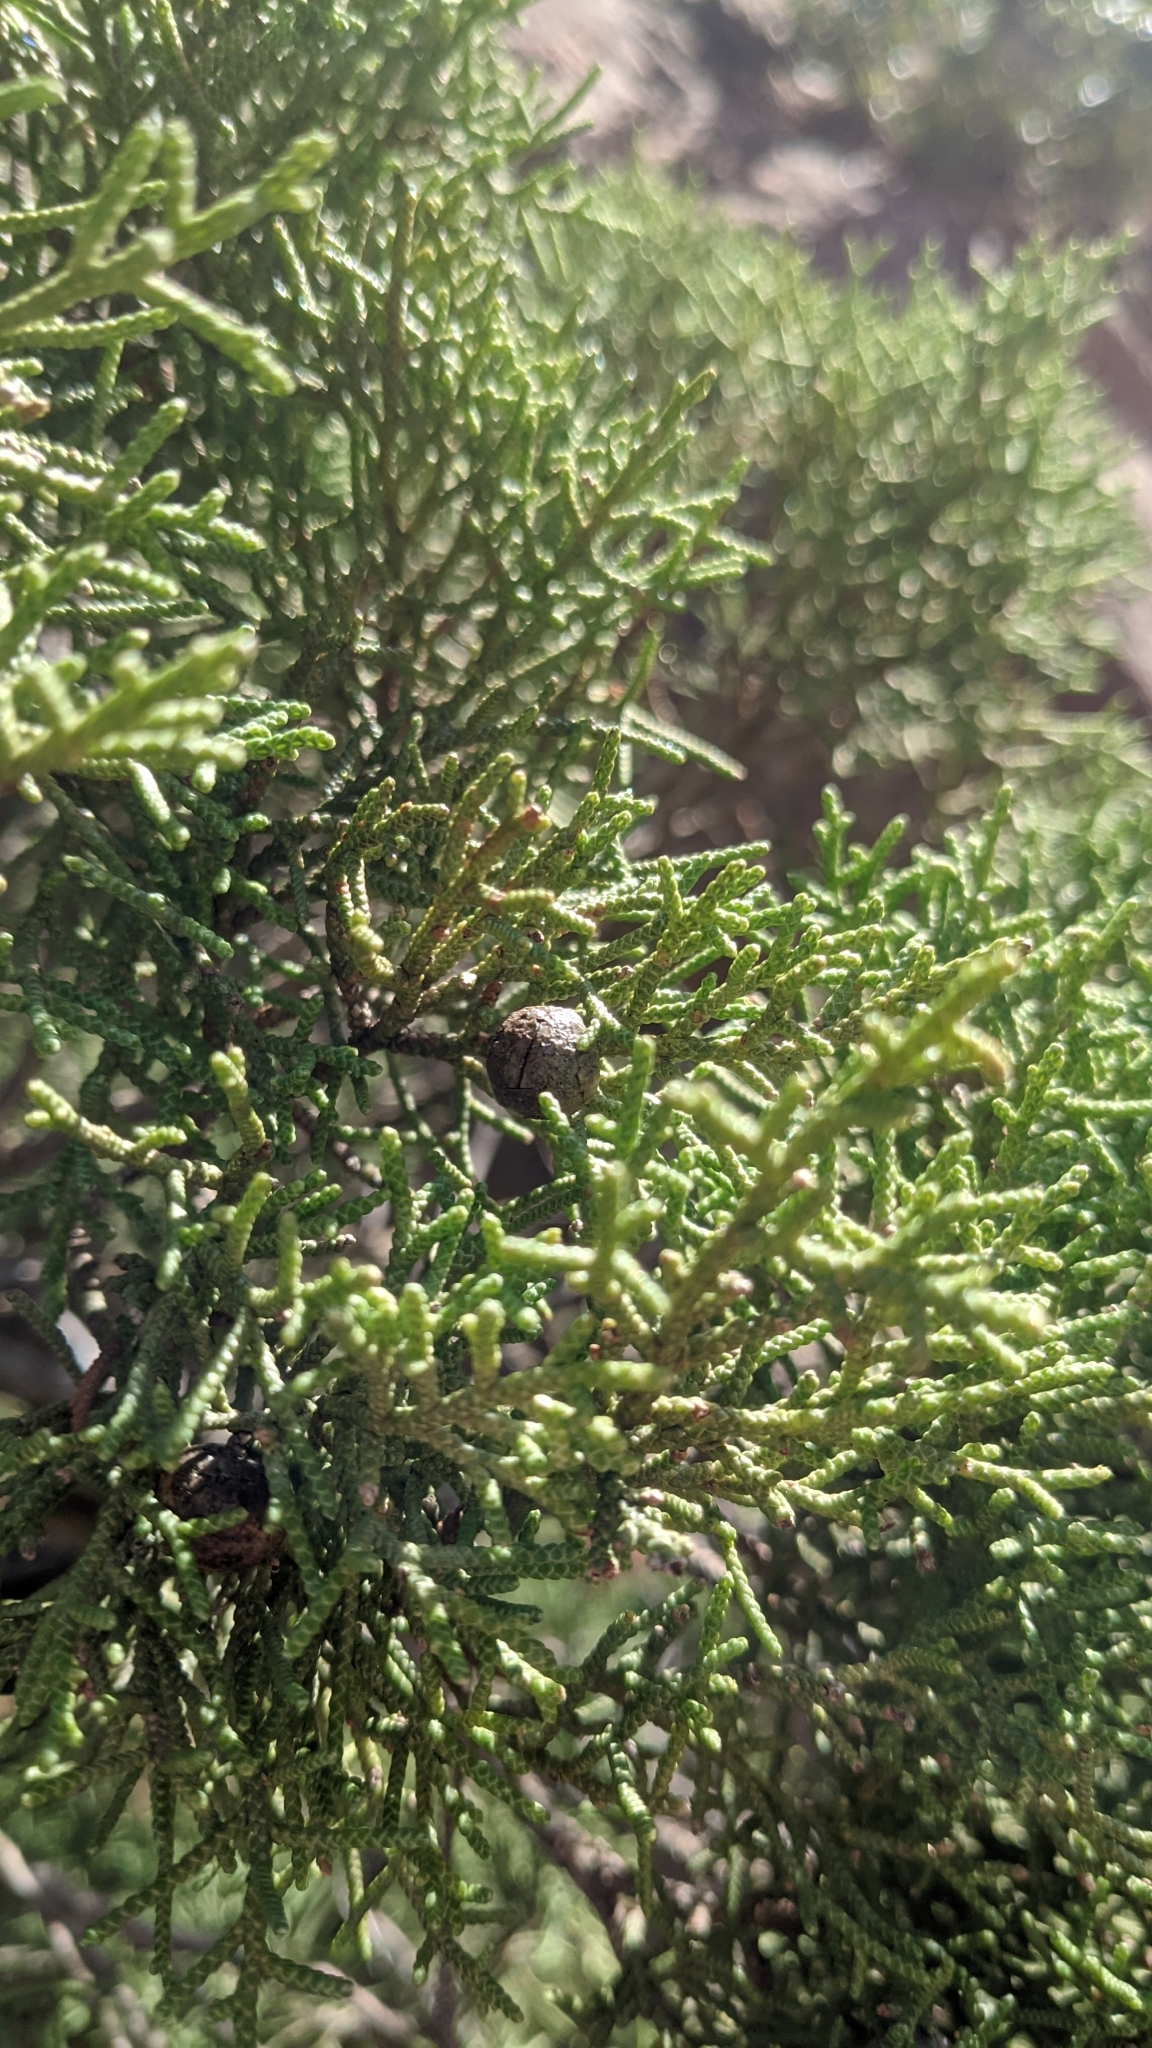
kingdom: Plantae
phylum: Tracheophyta
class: Pinopsida
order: Pinales
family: Cupressaceae
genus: Juniperus
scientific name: Juniperus phoenicea
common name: Phoenician juniper
